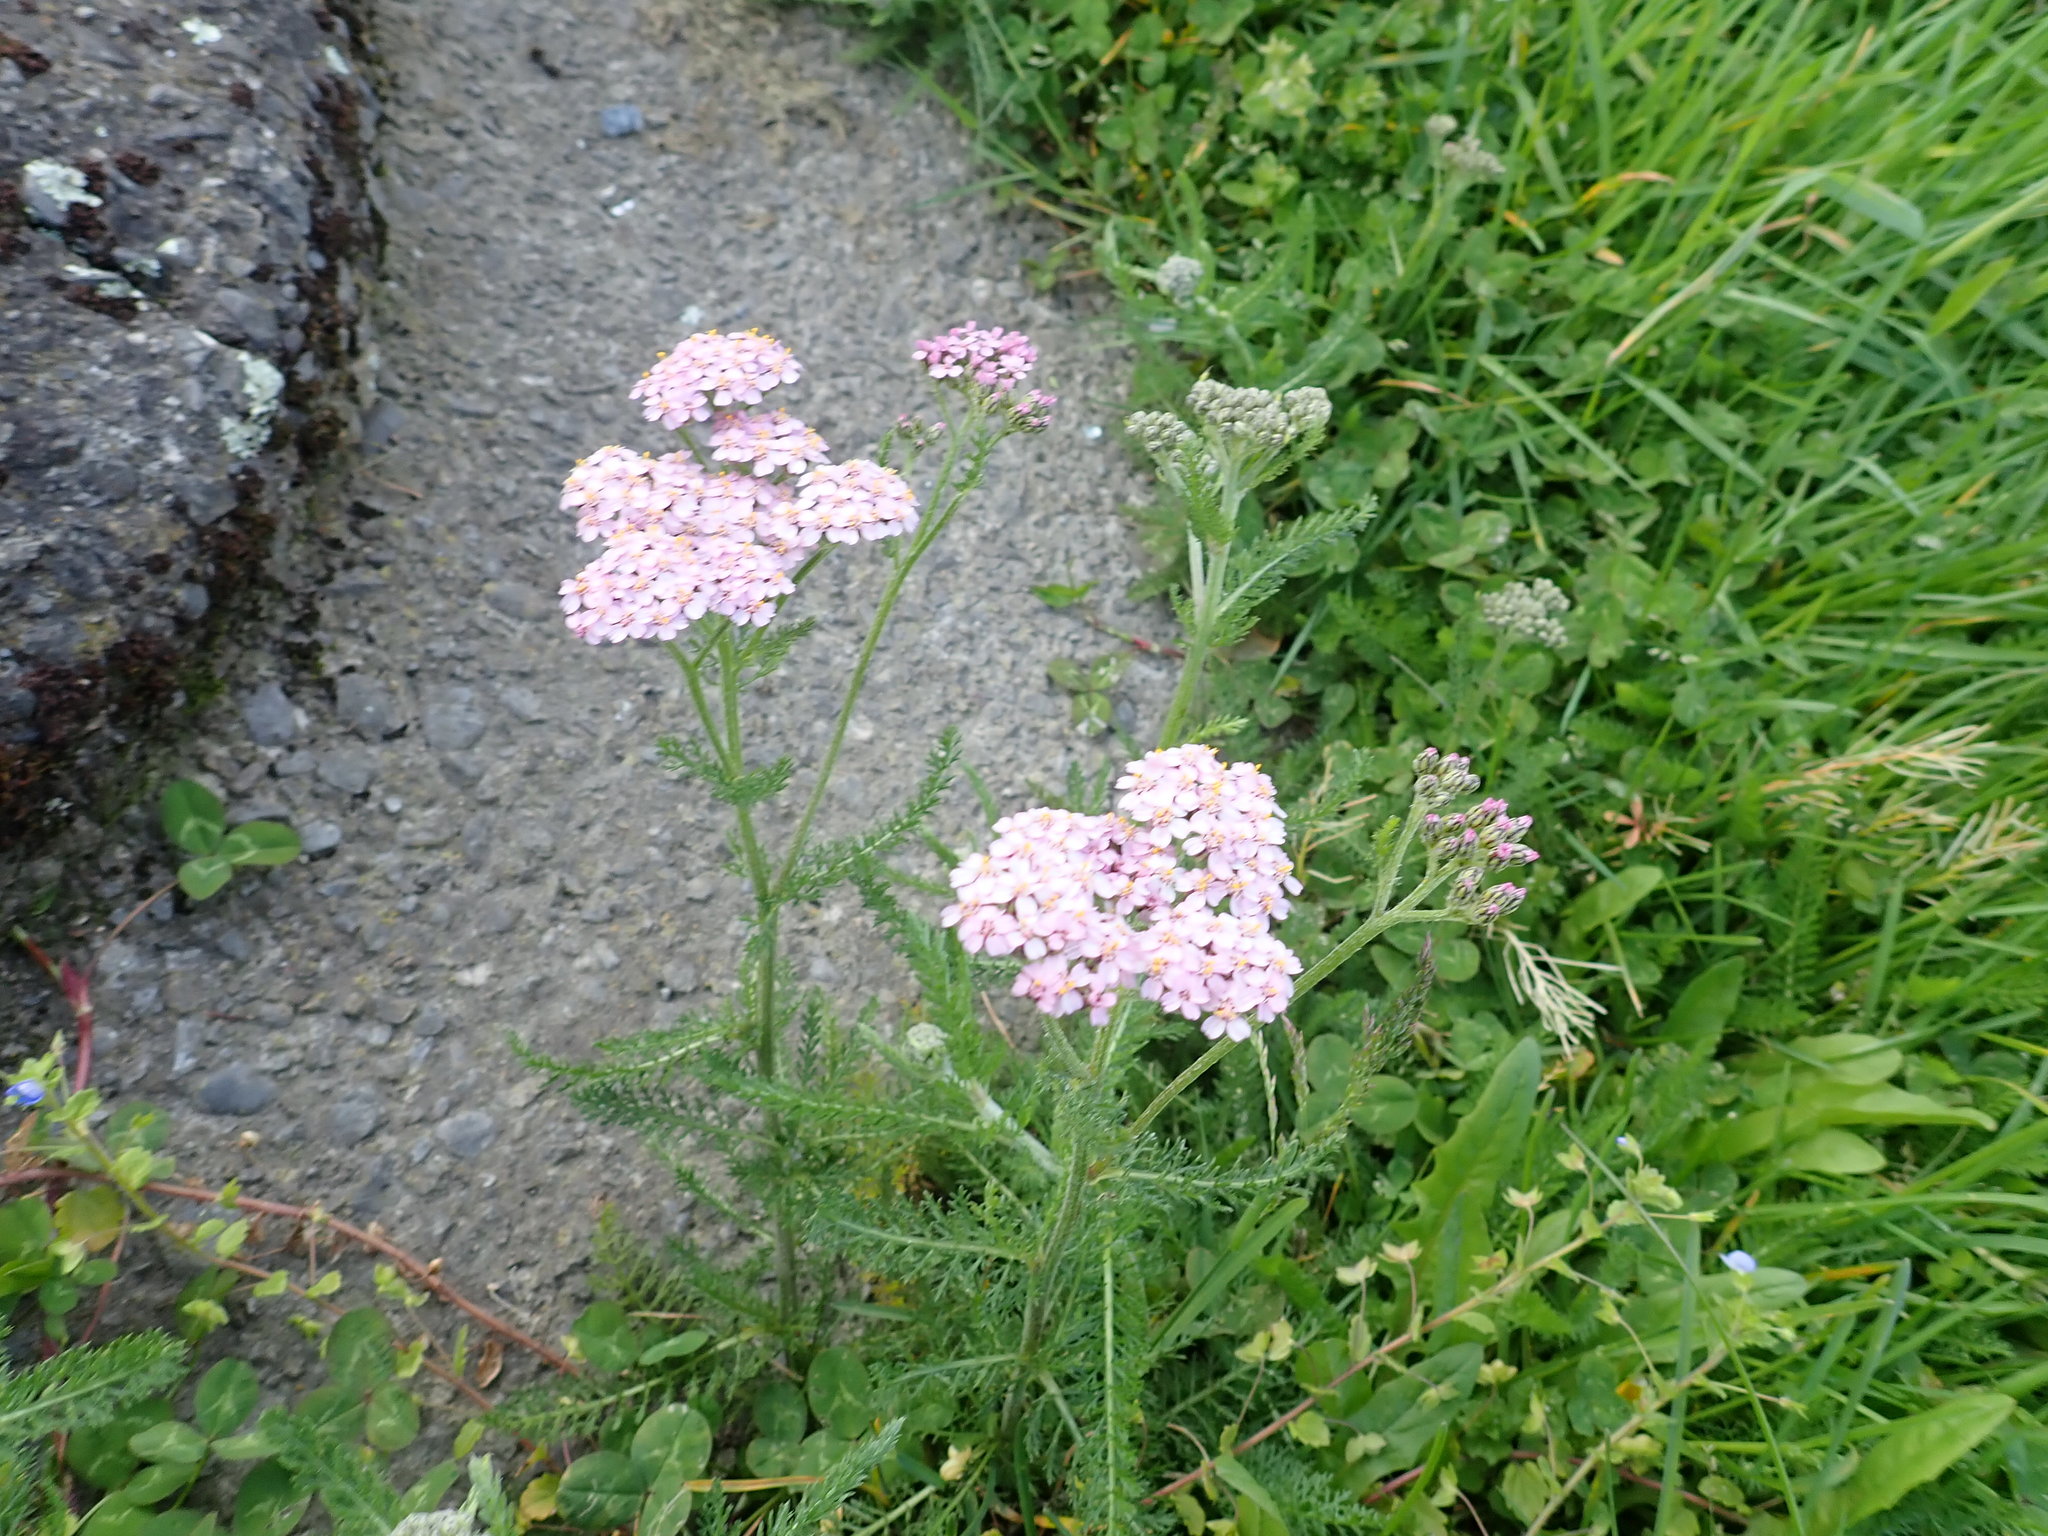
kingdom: Plantae
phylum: Tracheophyta
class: Magnoliopsida
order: Asterales
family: Asteraceae
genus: Achillea
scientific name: Achillea millefolium
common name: Yarrow
